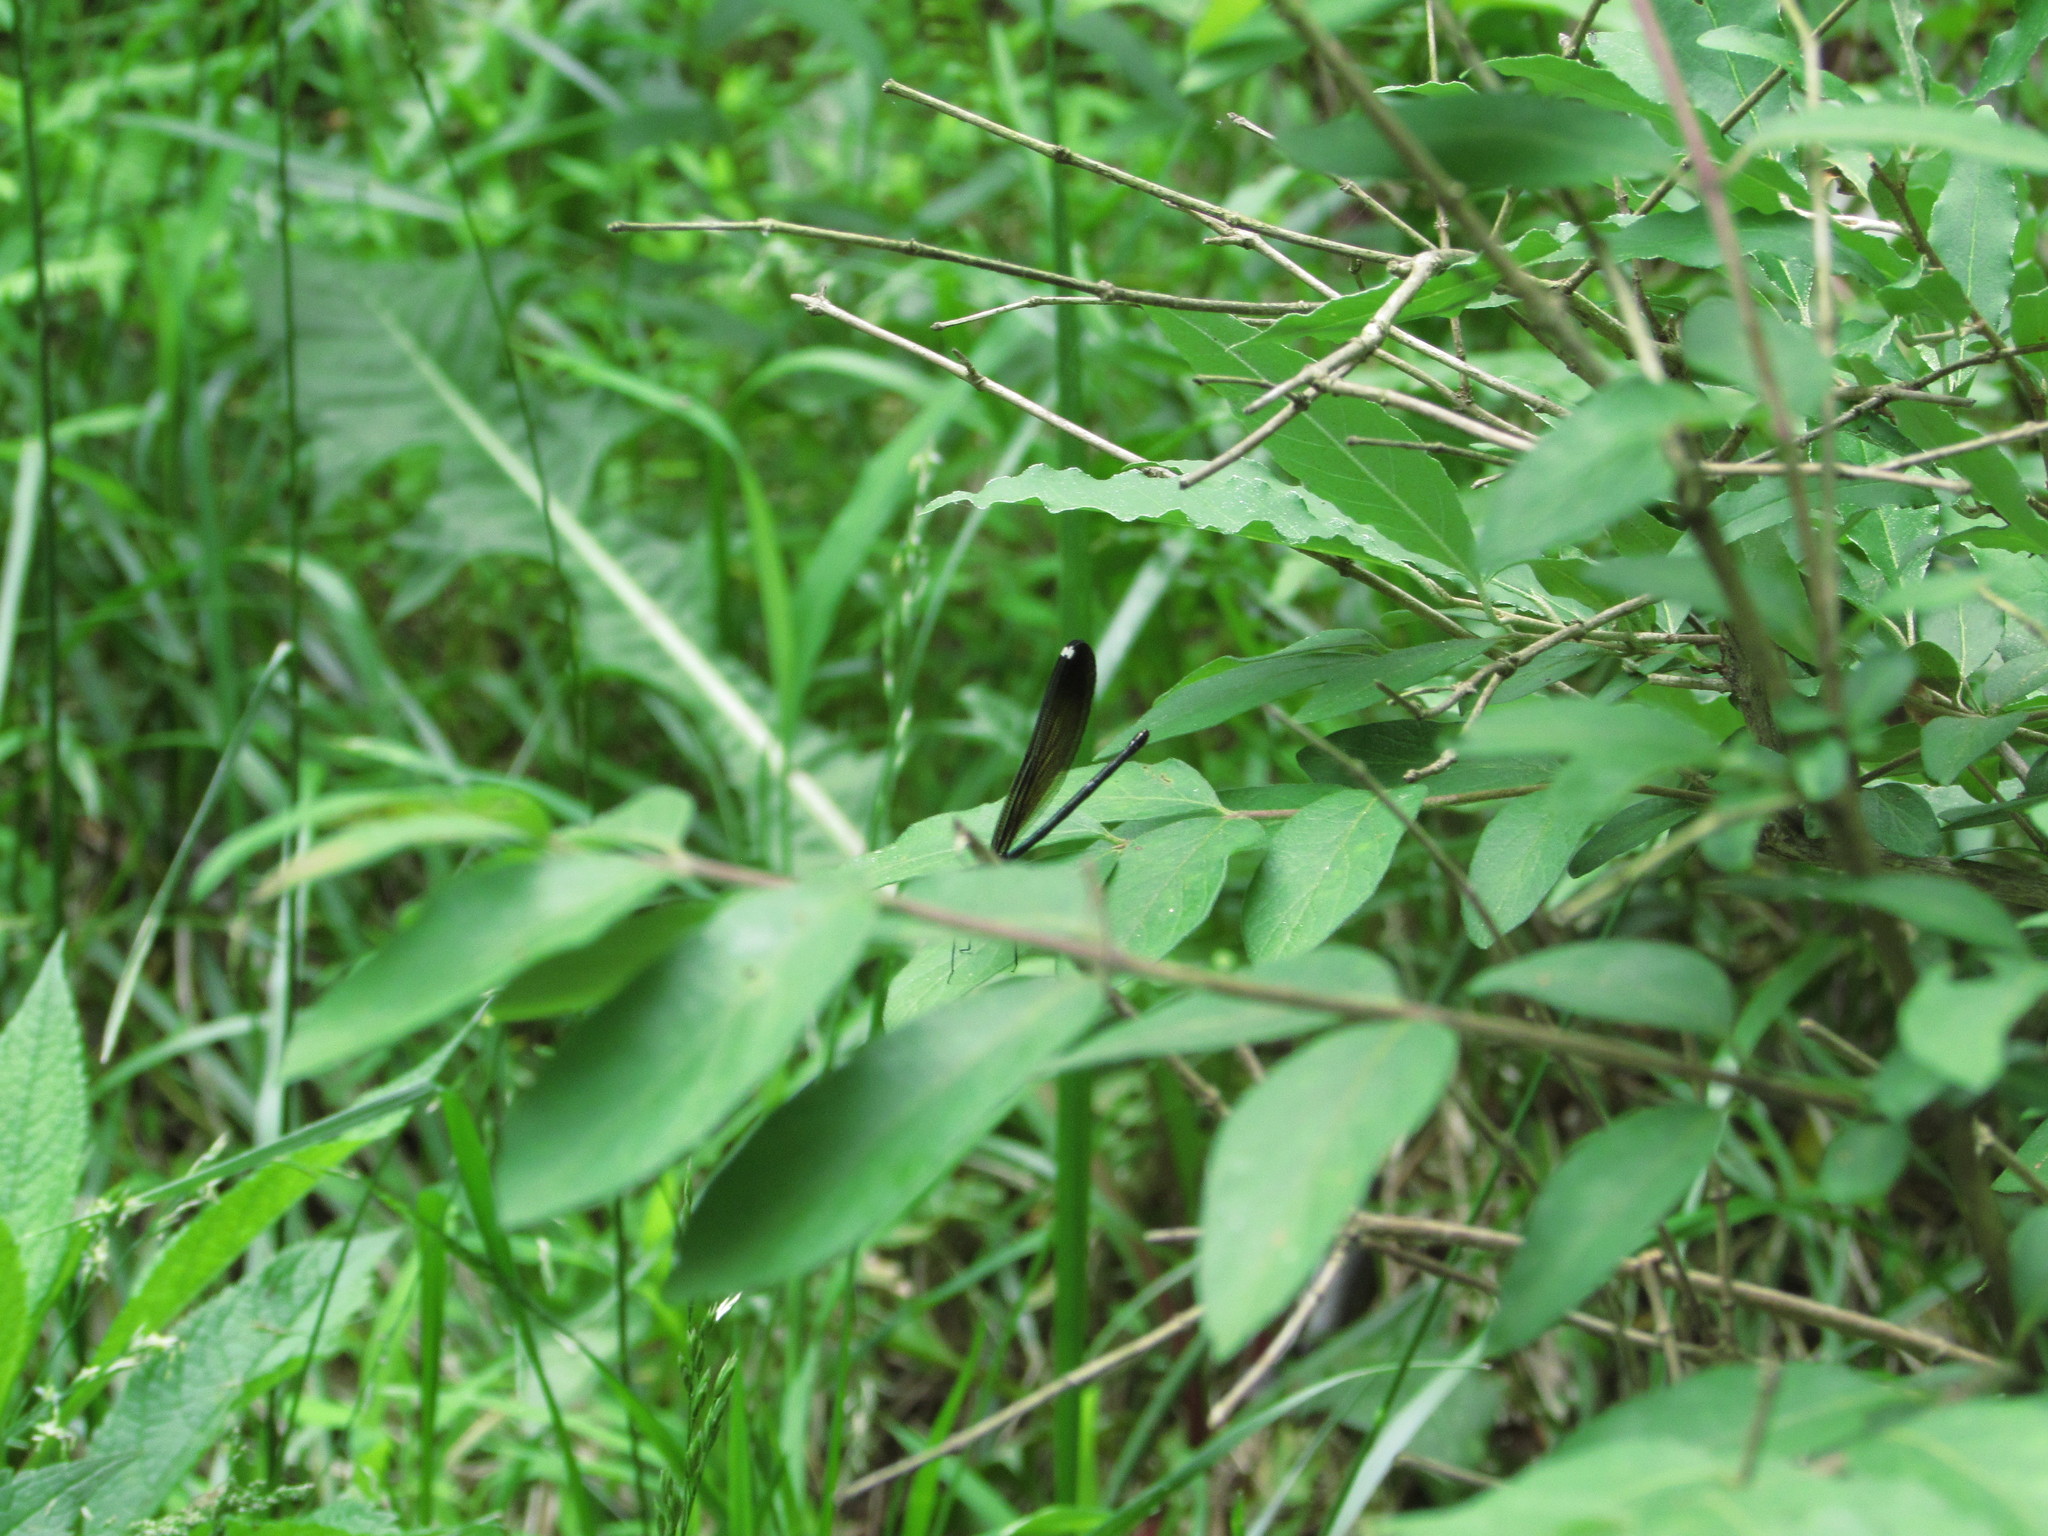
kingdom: Animalia
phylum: Arthropoda
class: Insecta
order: Odonata
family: Calopterygidae
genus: Calopteryx
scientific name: Calopteryx maculata
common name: Ebony jewelwing
